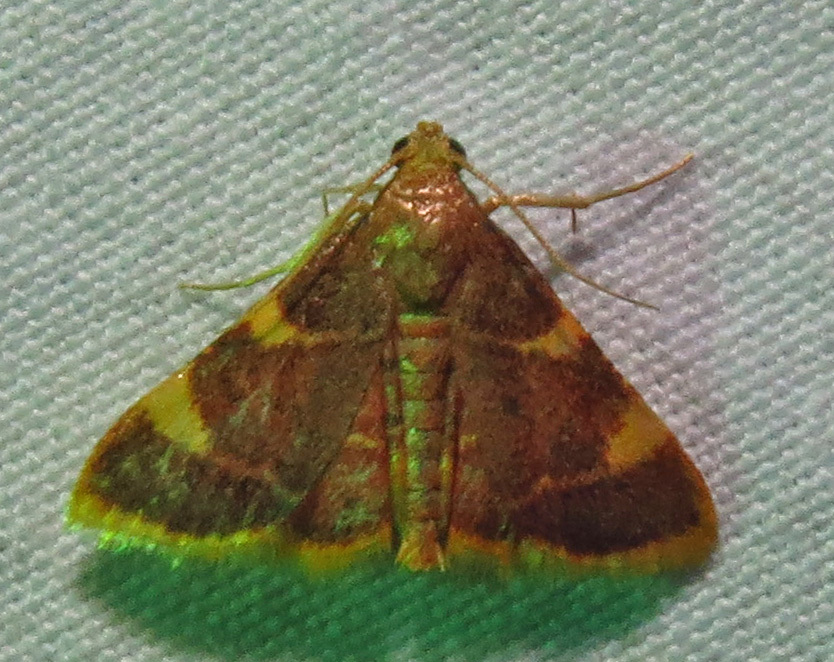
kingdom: Animalia
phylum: Arthropoda
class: Insecta
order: Lepidoptera
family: Pyralidae
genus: Hypsopygia
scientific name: Hypsopygia costalis
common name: Gold triangle
